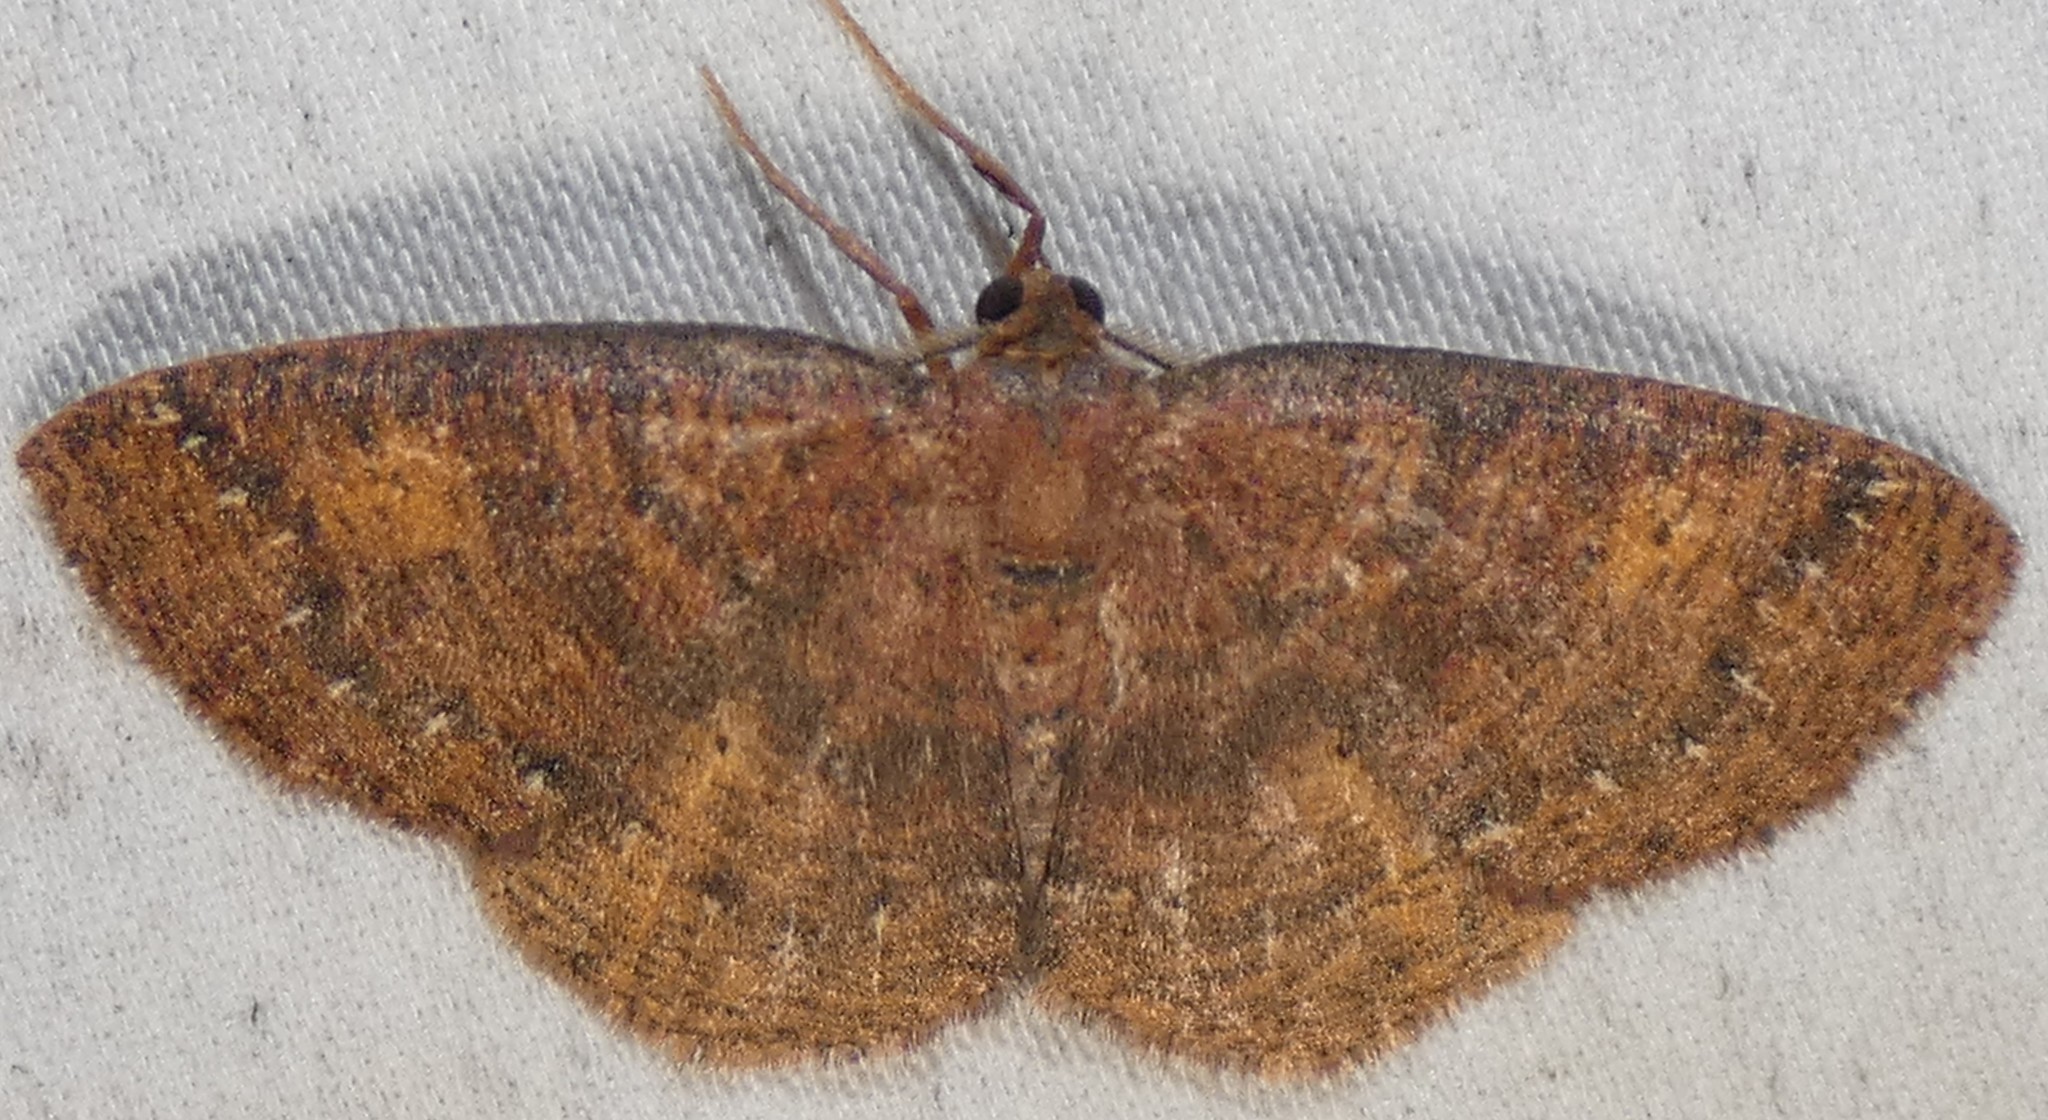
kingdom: Animalia
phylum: Arthropoda
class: Insecta
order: Lepidoptera
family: Geometridae
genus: Ilexia
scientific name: Ilexia intractata
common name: Black-dotted ruddy moth
